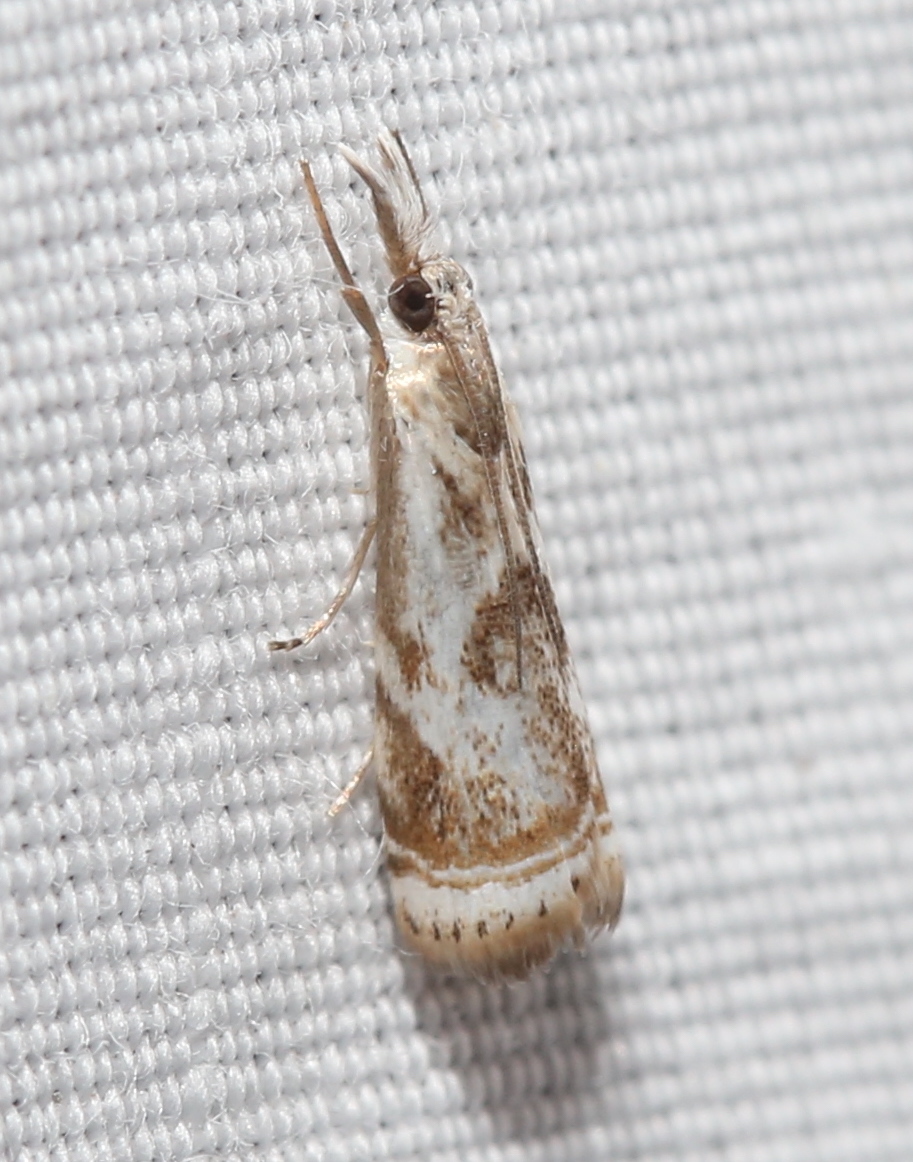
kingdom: Animalia
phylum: Arthropoda
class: Insecta
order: Lepidoptera
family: Crambidae
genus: Microcrambus
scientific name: Microcrambus elegans
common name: Elegant grass-veneer
